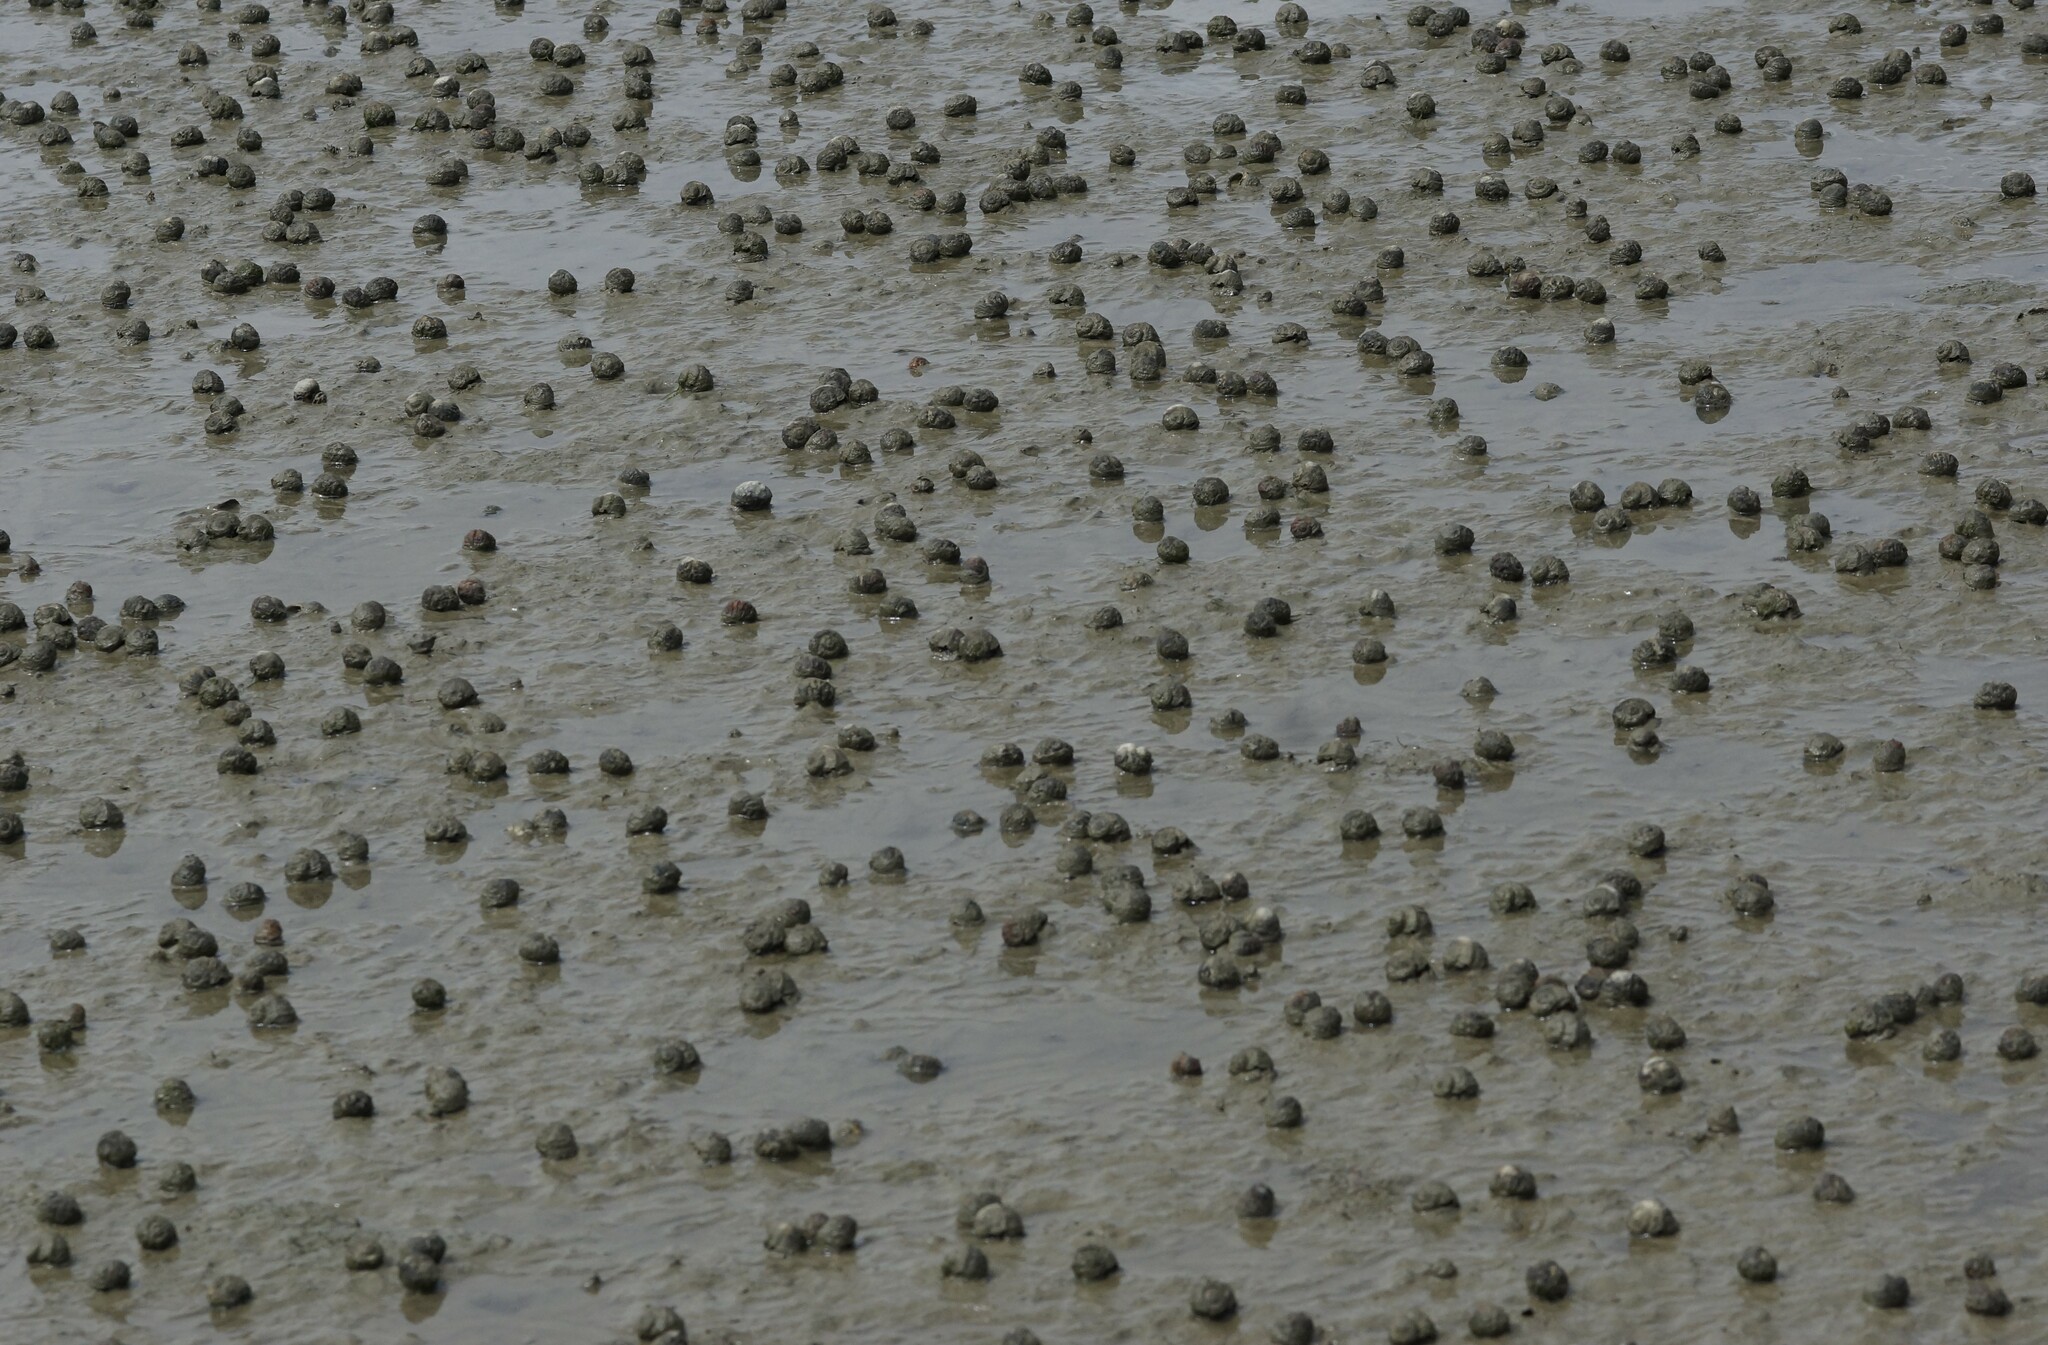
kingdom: Animalia
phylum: Mollusca
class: Gastropoda
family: Amphibolidae
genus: Amphibola
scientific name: Amphibola crenata
